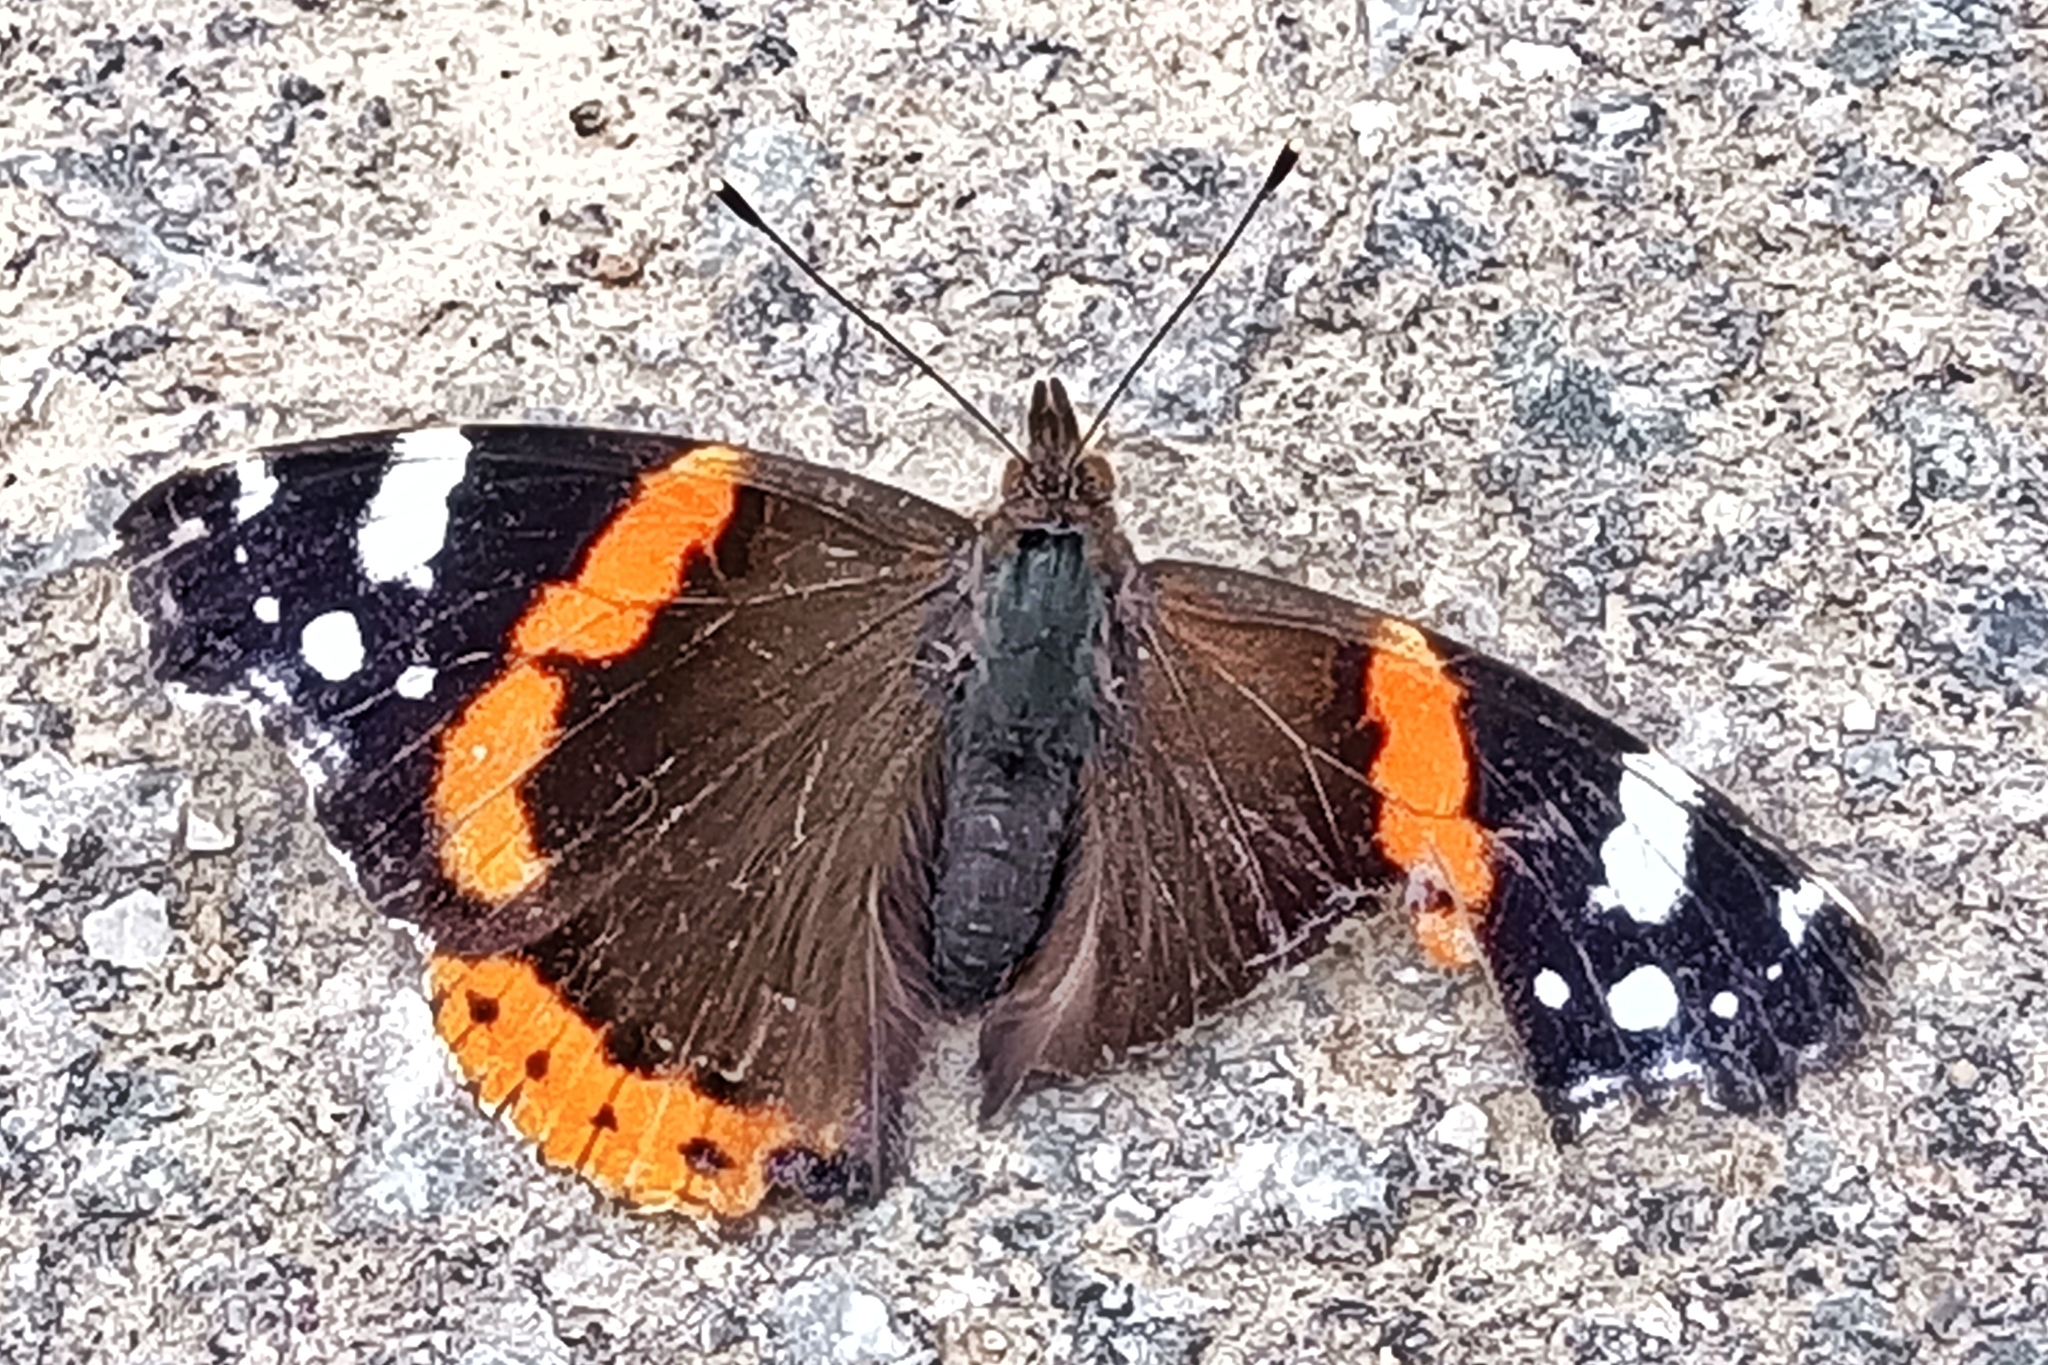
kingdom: Animalia
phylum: Arthropoda
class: Insecta
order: Lepidoptera
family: Nymphalidae
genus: Vanessa
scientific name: Vanessa atalanta
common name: Red admiral
